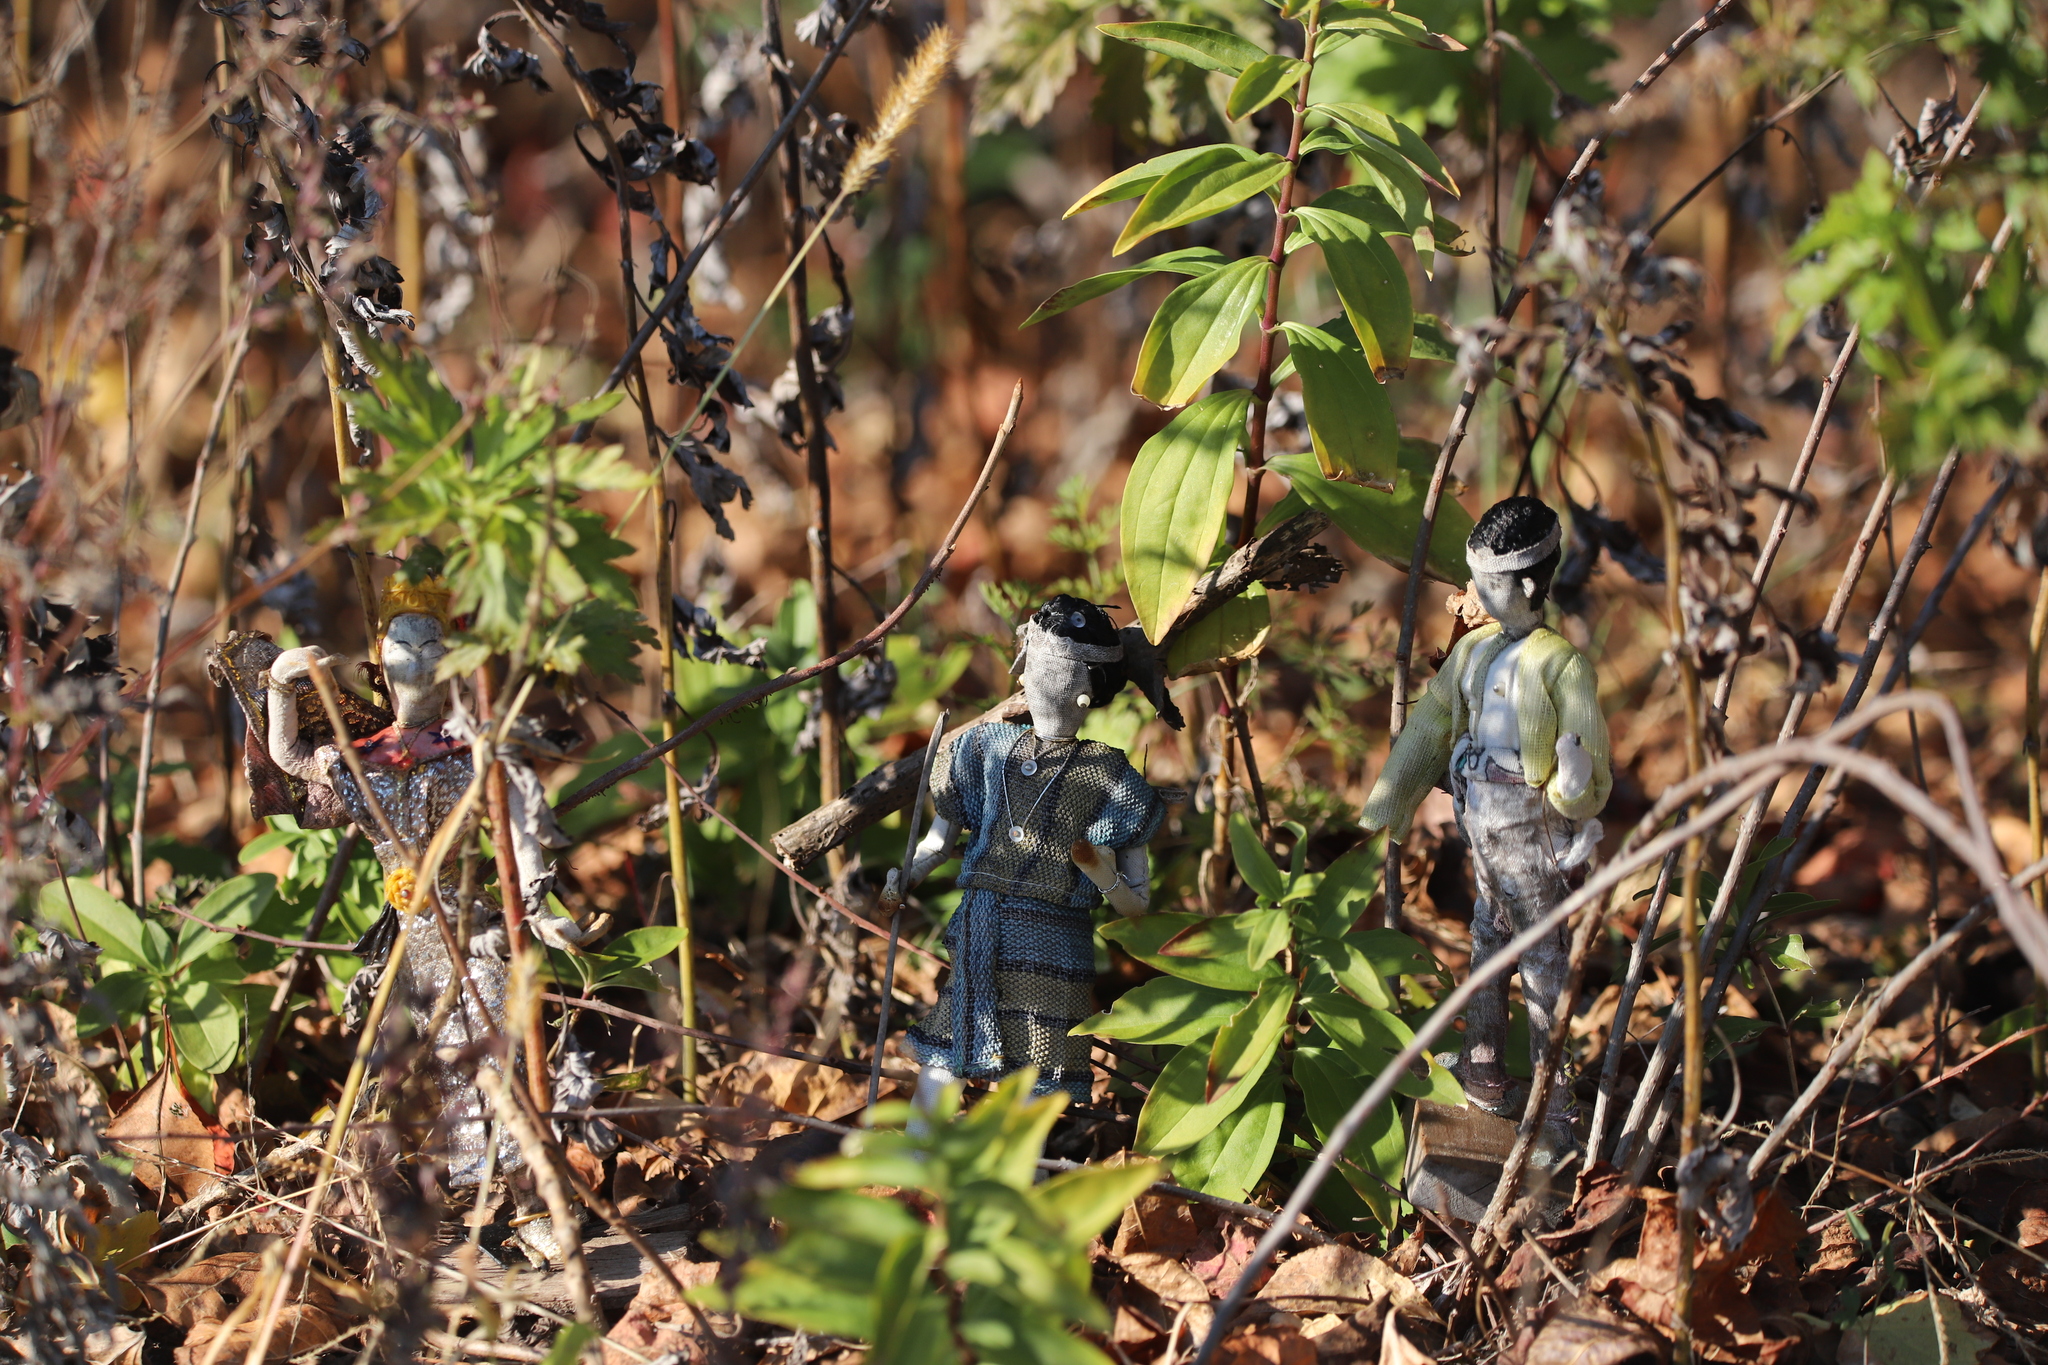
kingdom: Plantae
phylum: Tracheophyta
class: Magnoliopsida
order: Asterales
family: Asteraceae
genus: Artemisia
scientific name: Artemisia vulgaris
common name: Mugwort
